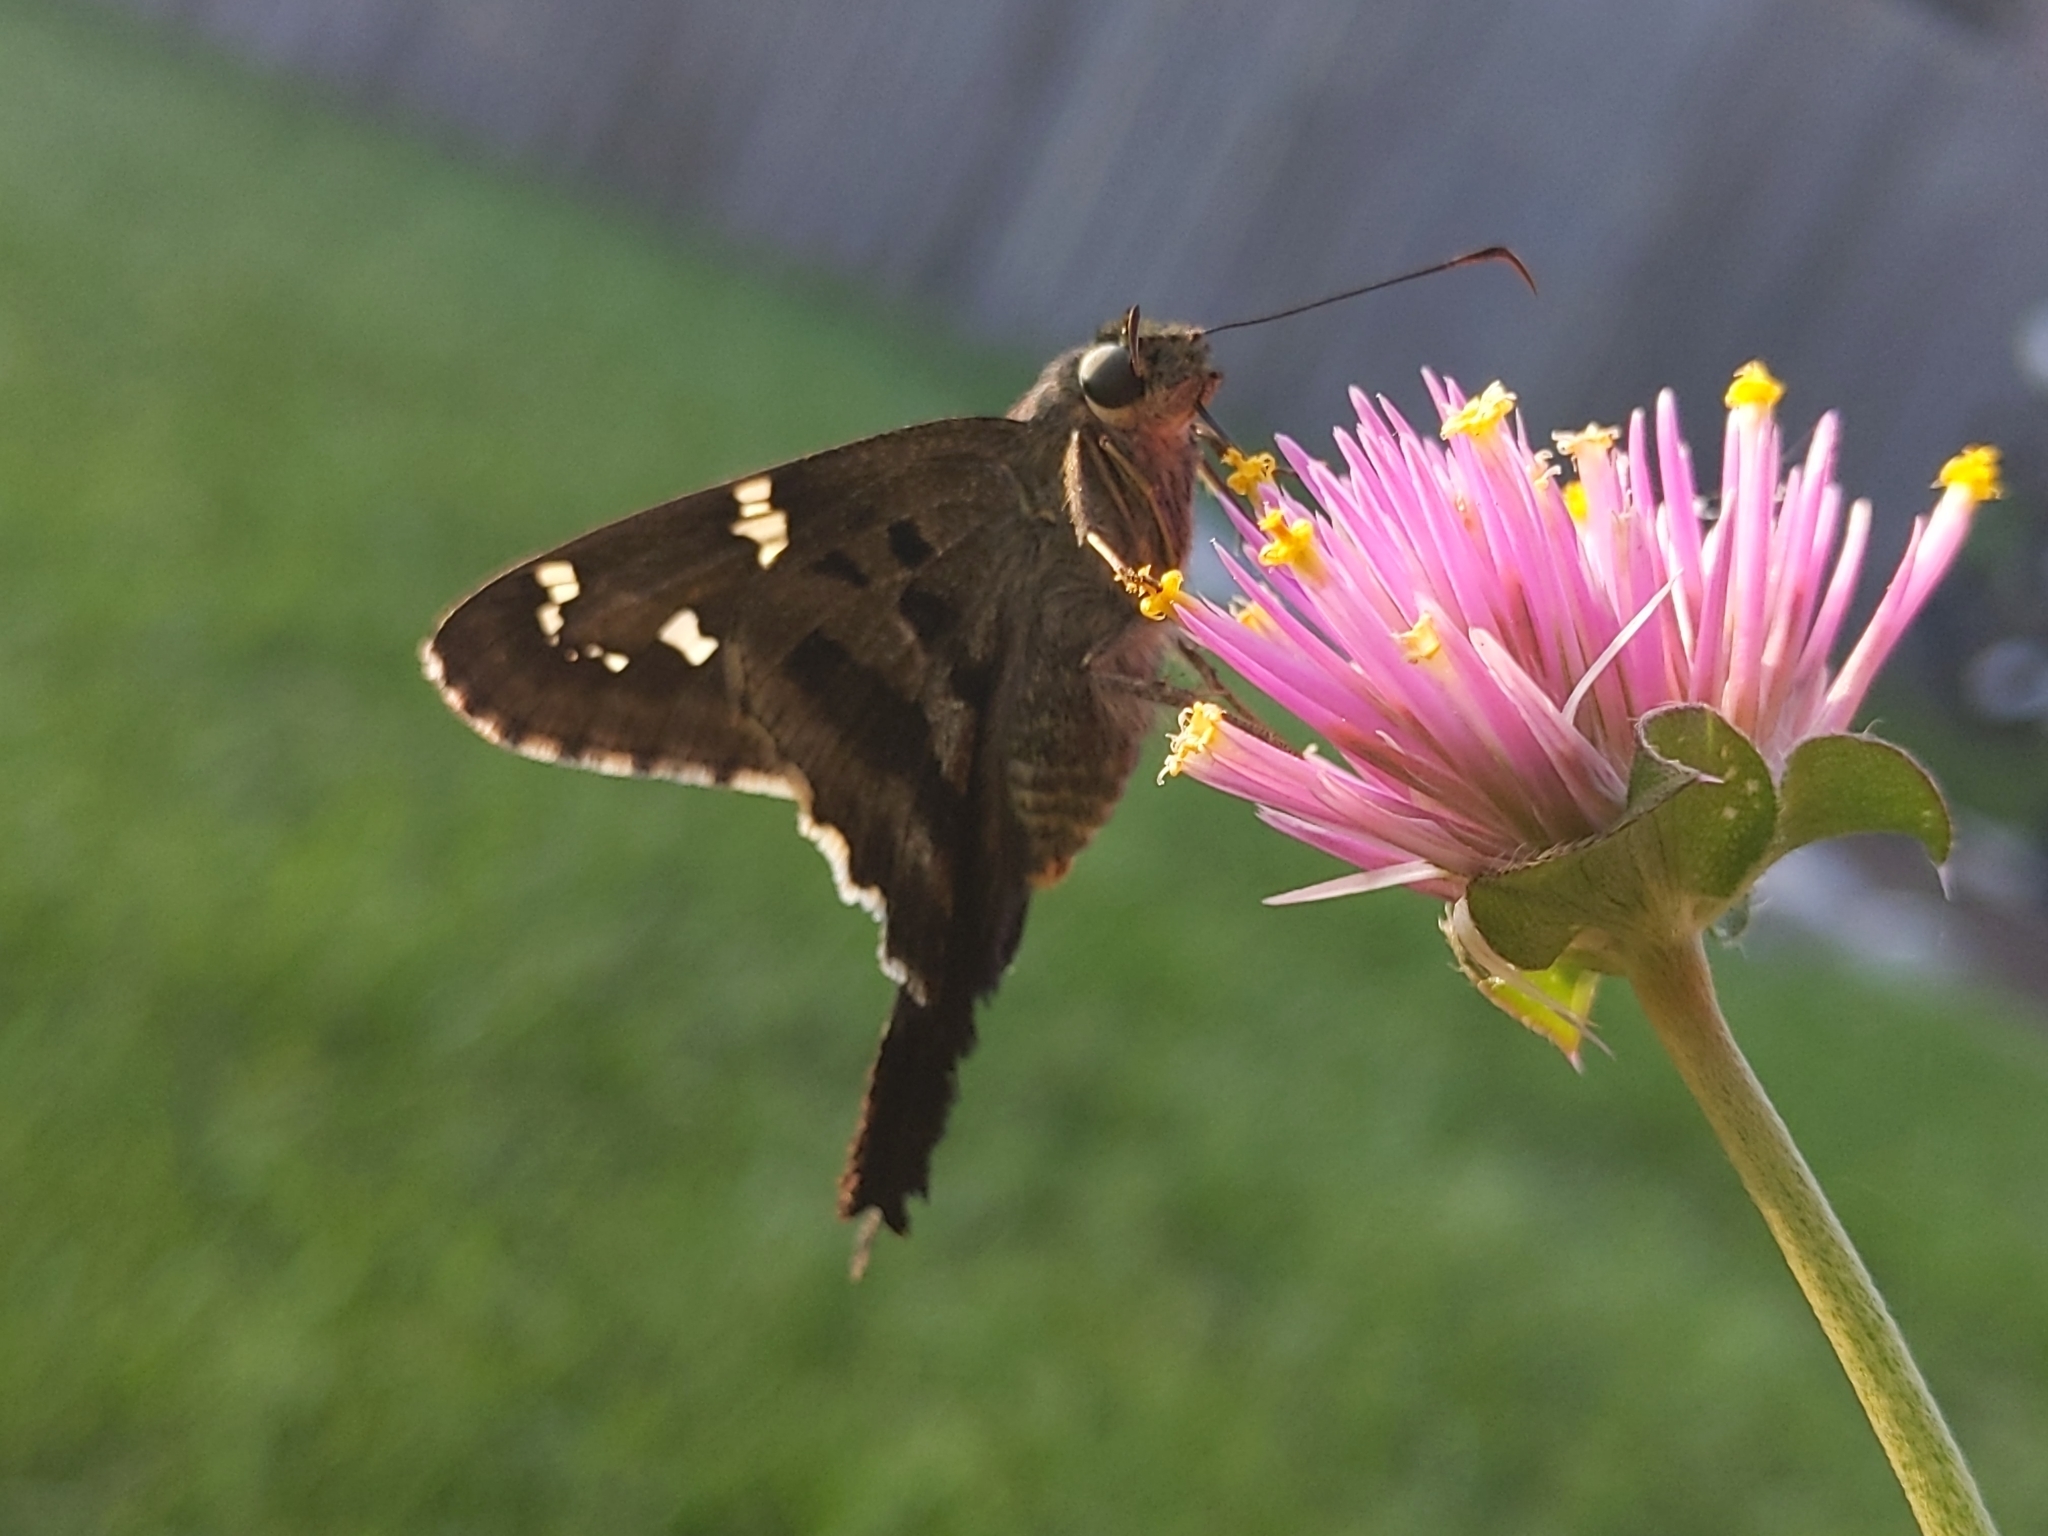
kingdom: Animalia
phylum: Arthropoda
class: Insecta
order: Lepidoptera
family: Hesperiidae
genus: Urbanus
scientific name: Urbanus proteus
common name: Long-tailed skipper
